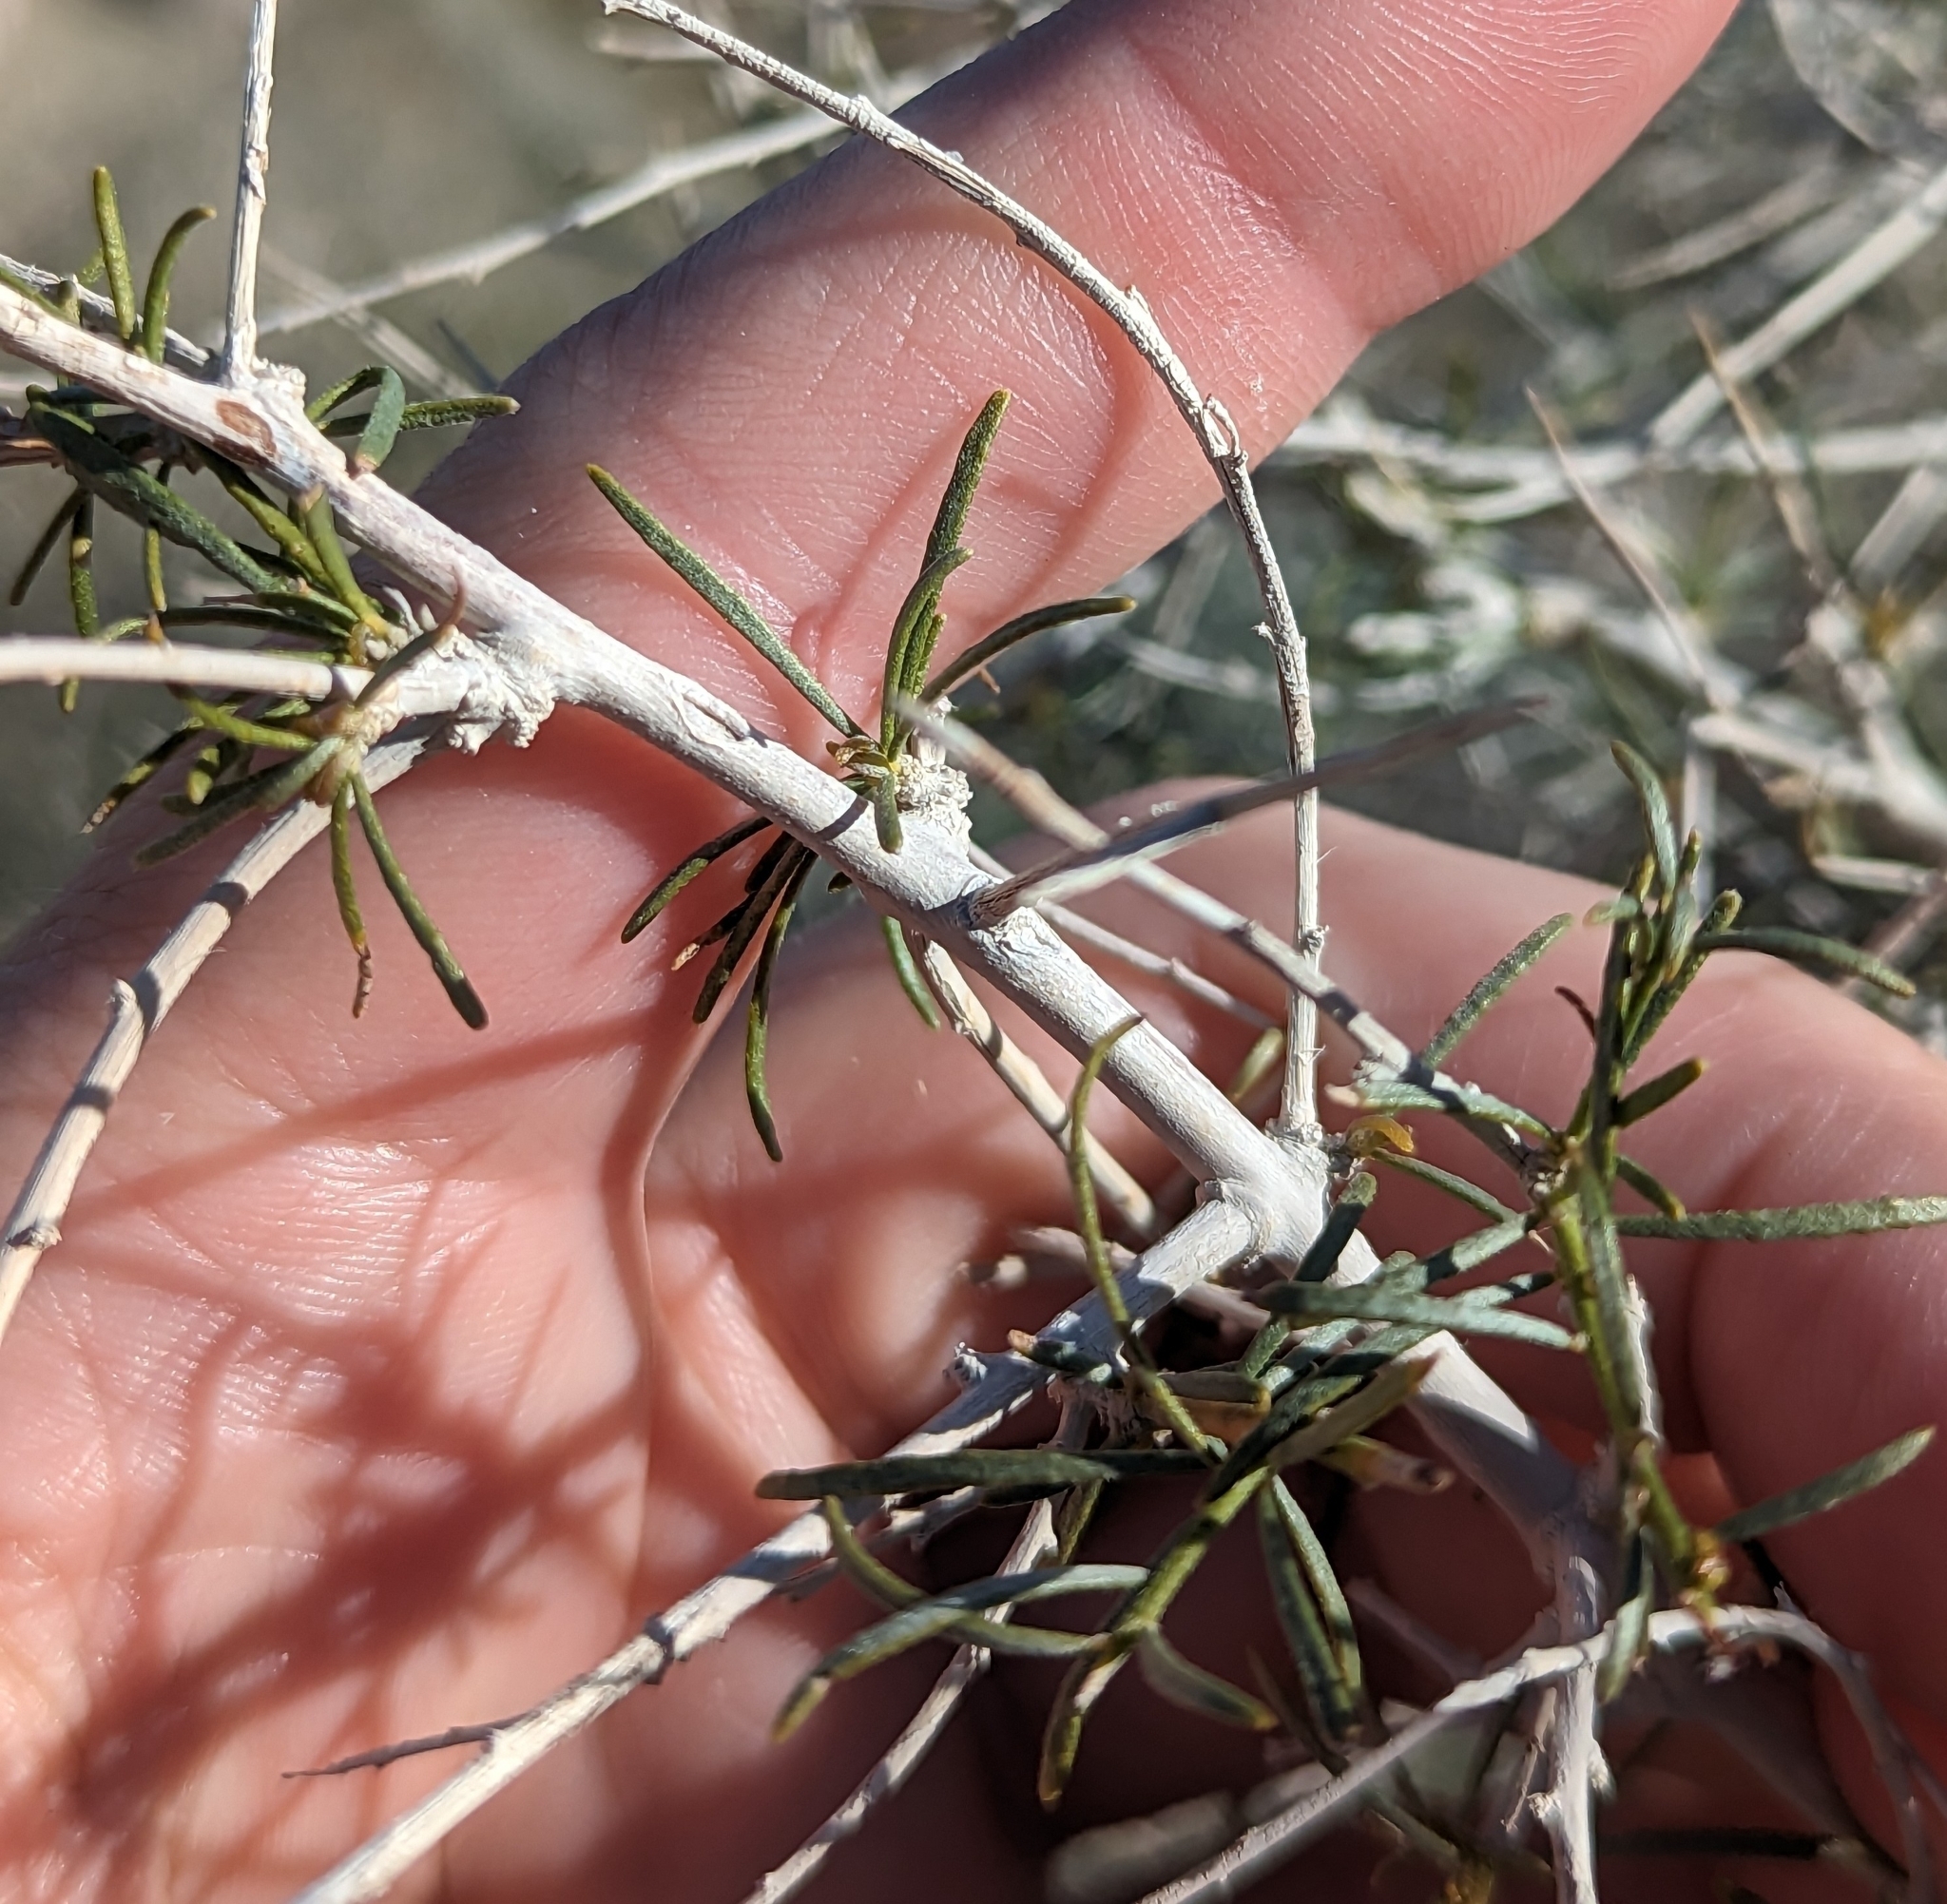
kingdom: Plantae
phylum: Tracheophyta
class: Magnoliopsida
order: Fabales
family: Fabaceae
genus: Psorothamnus
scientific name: Psorothamnus schottii
